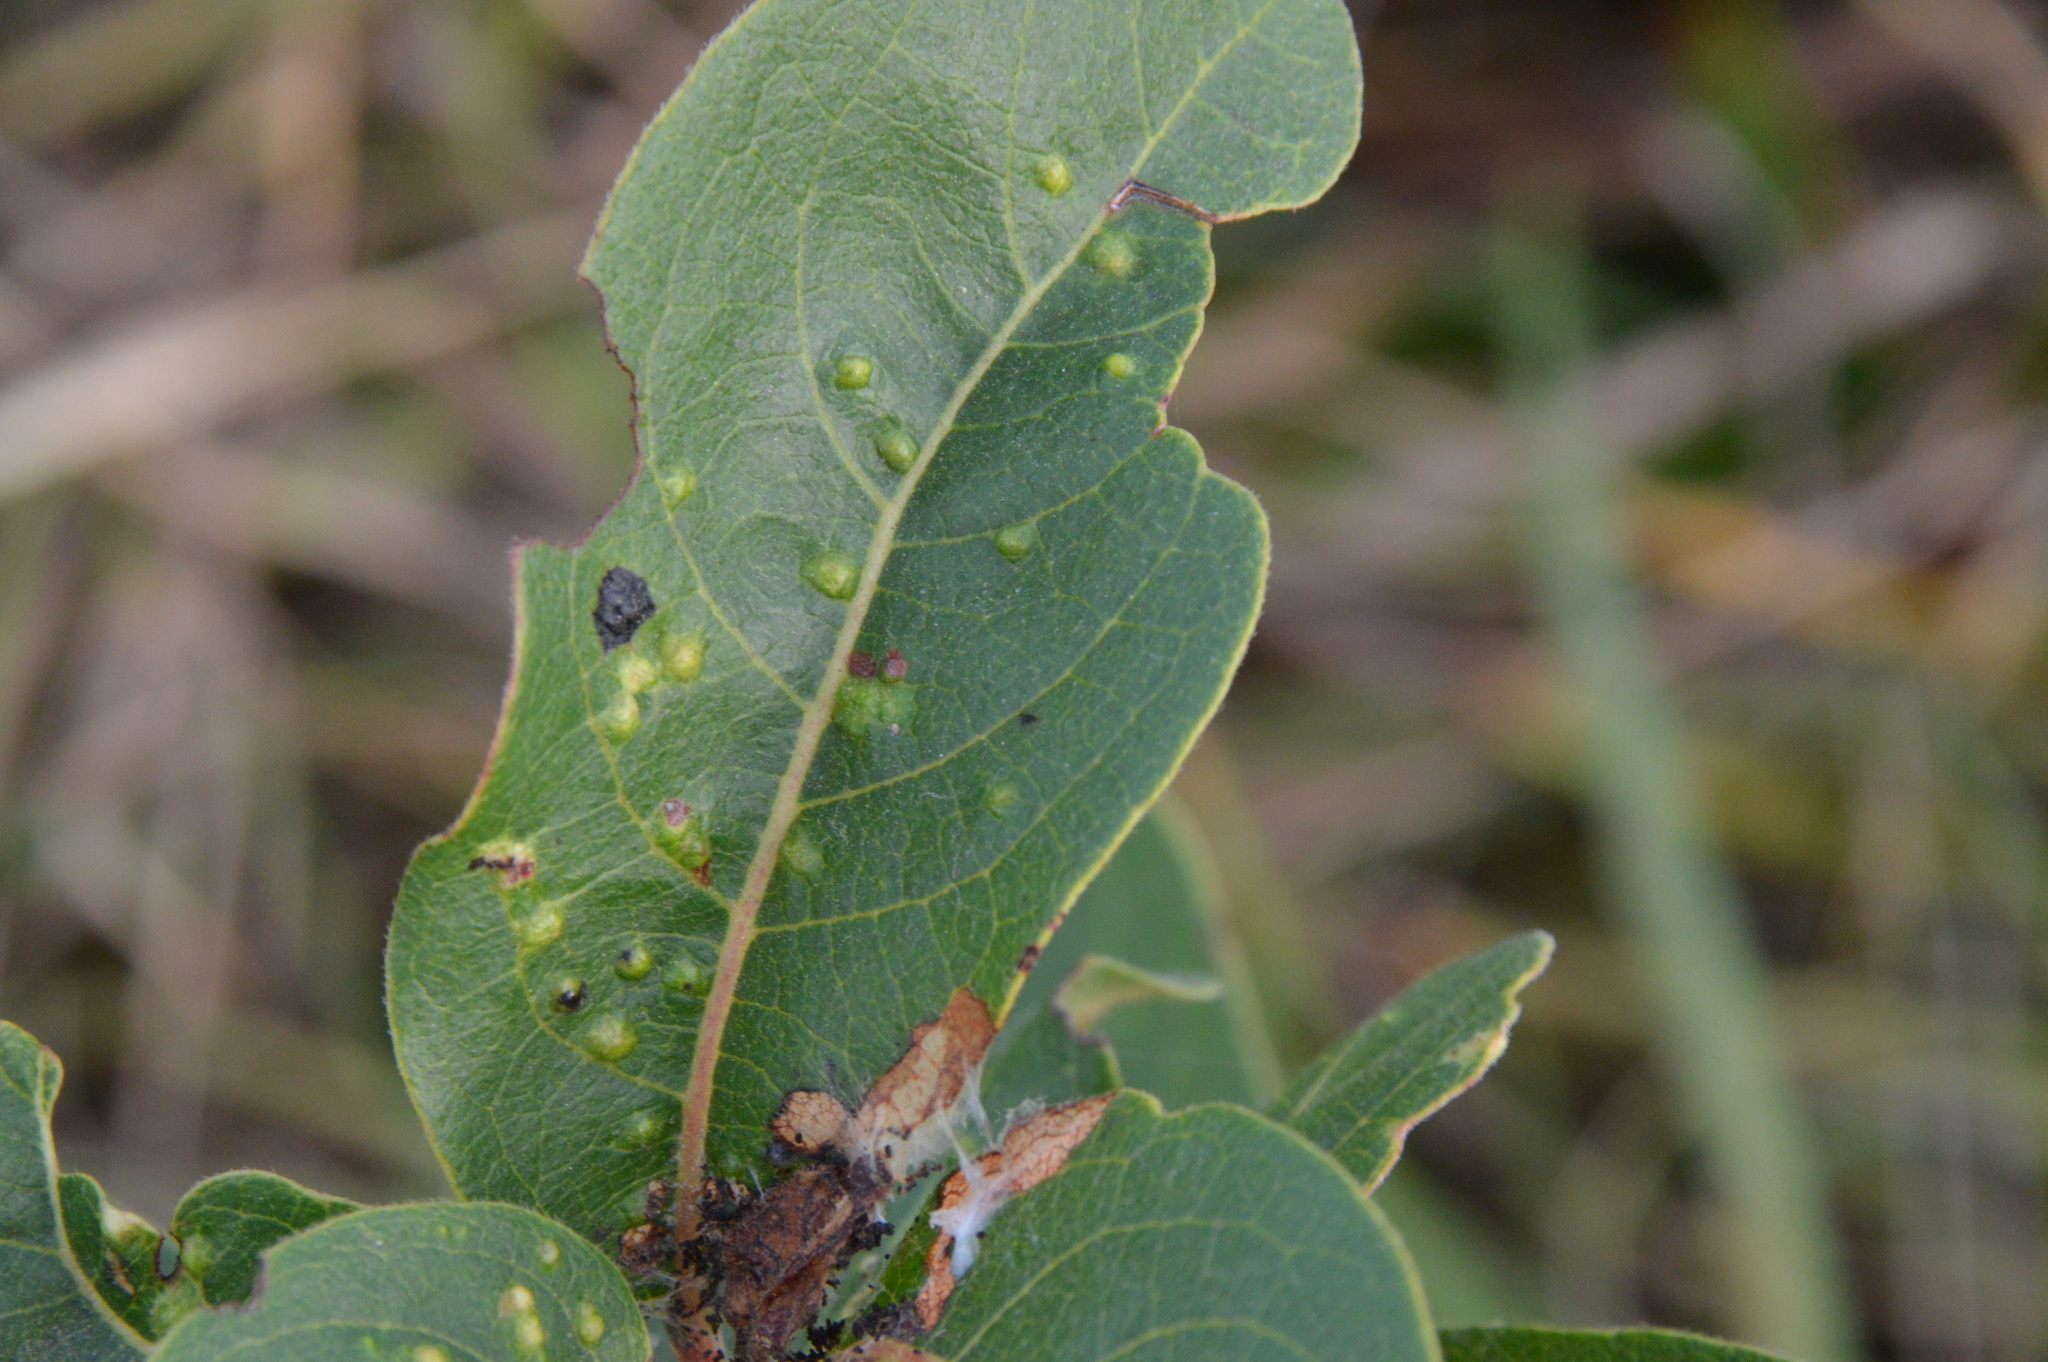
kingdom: Animalia
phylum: Arthropoda
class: Arachnida
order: Trombidiformes
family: Eriophyidae
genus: Aceria
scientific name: Aceria
